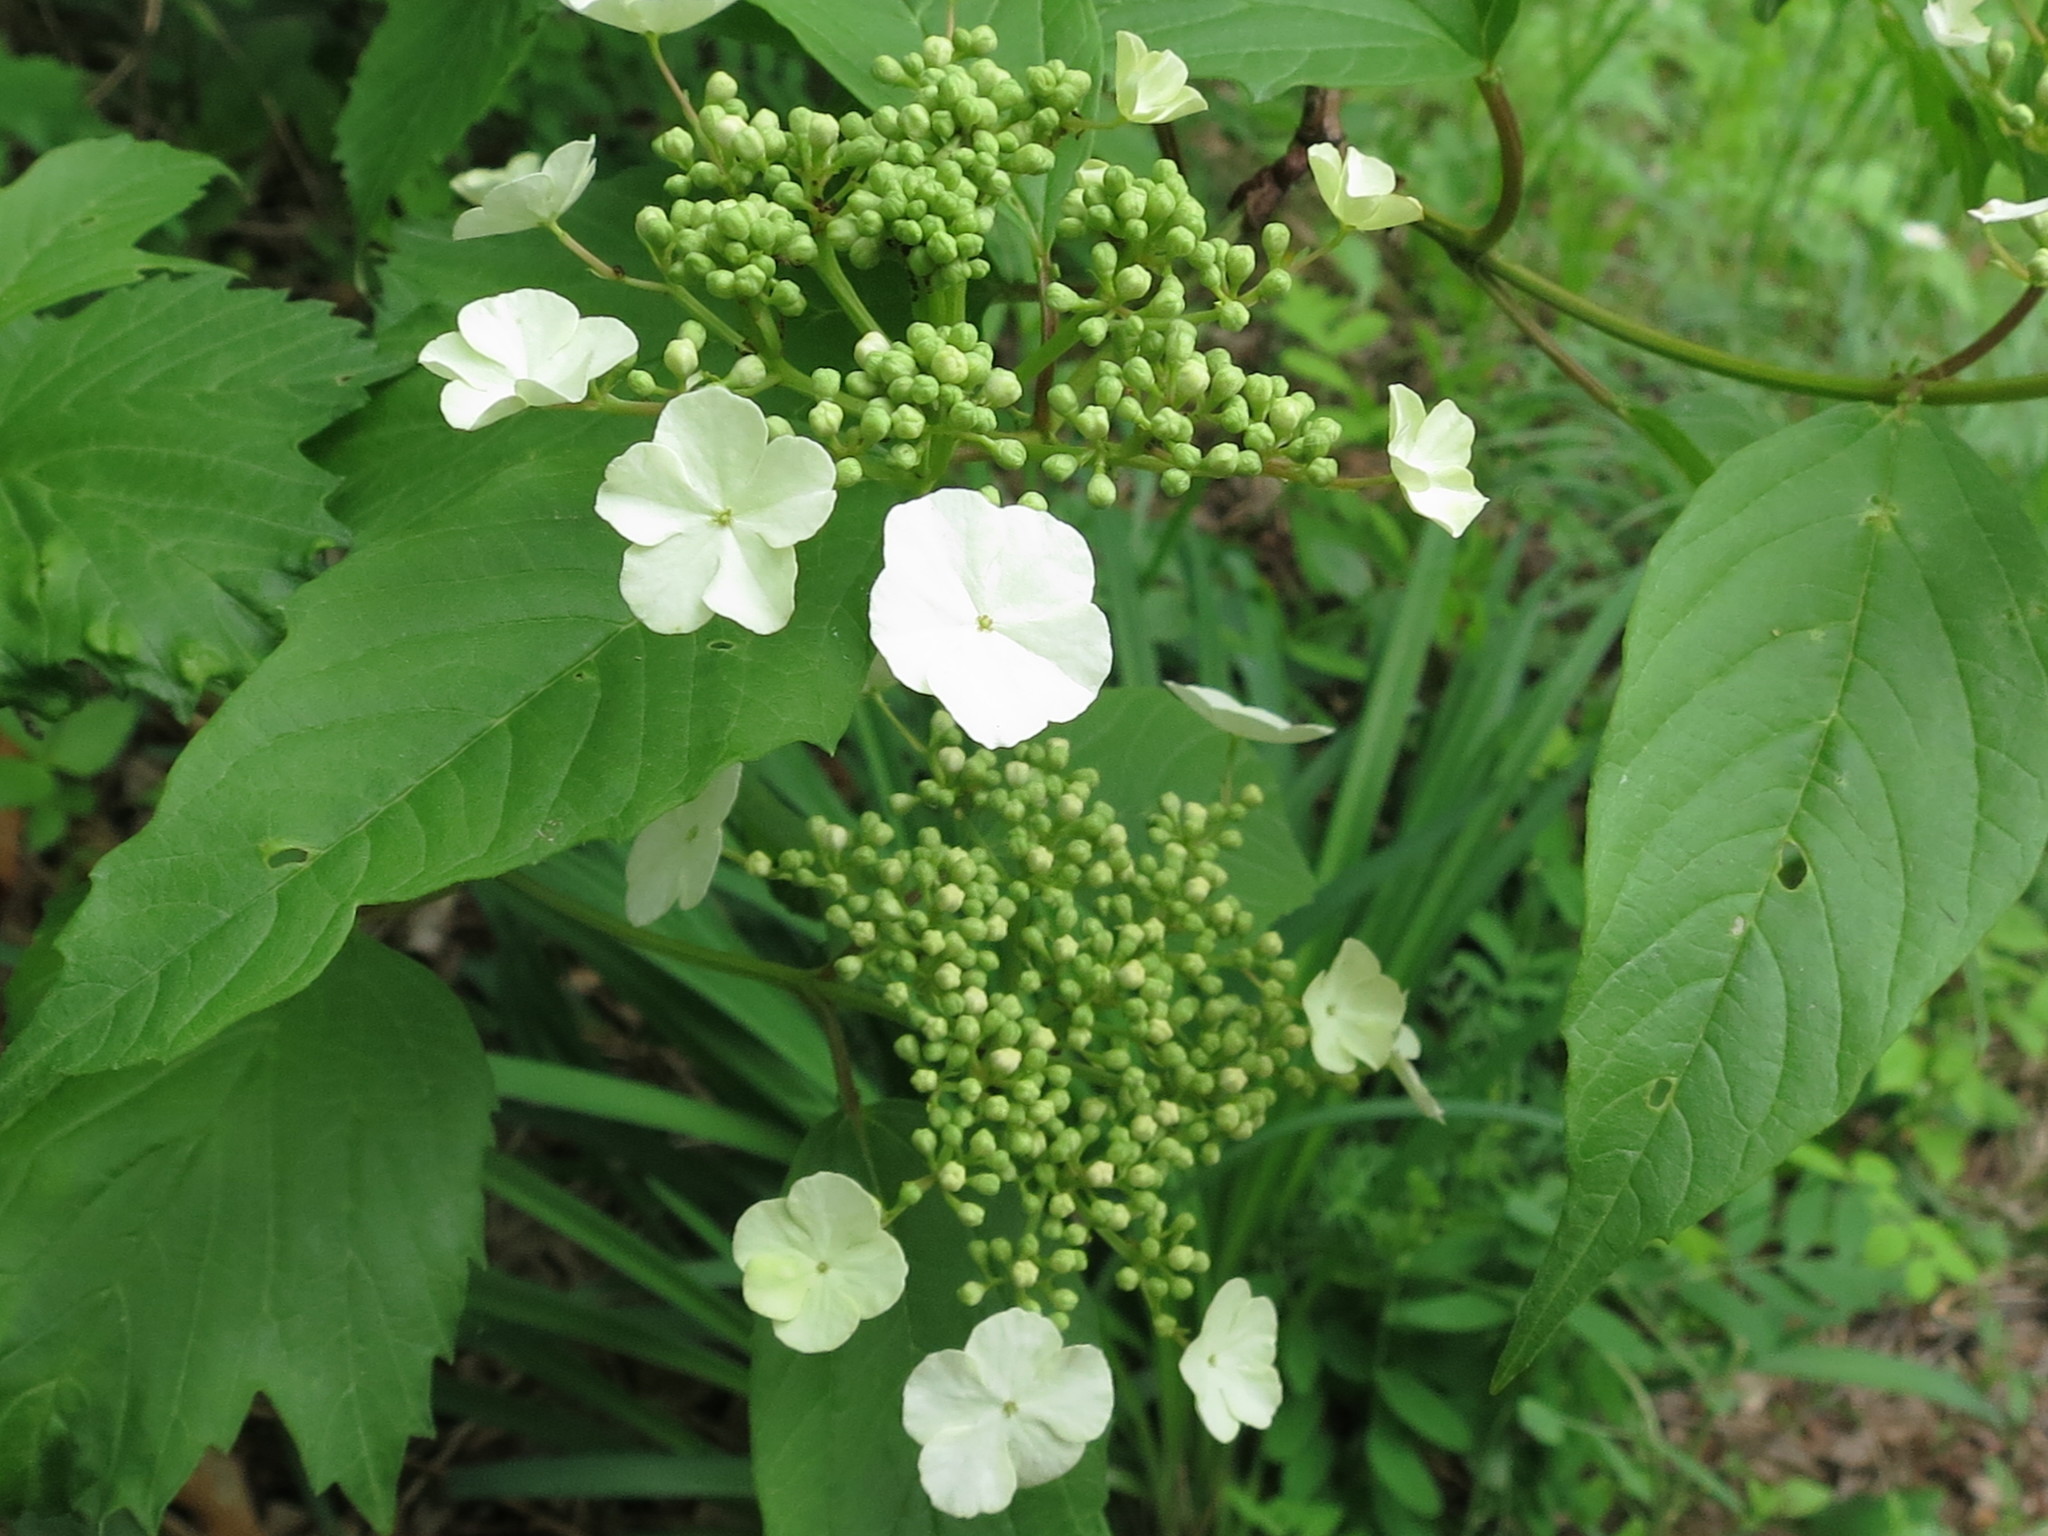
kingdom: Plantae
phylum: Tracheophyta
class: Magnoliopsida
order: Dipsacales
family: Viburnaceae
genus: Viburnum
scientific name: Viburnum sargentii
